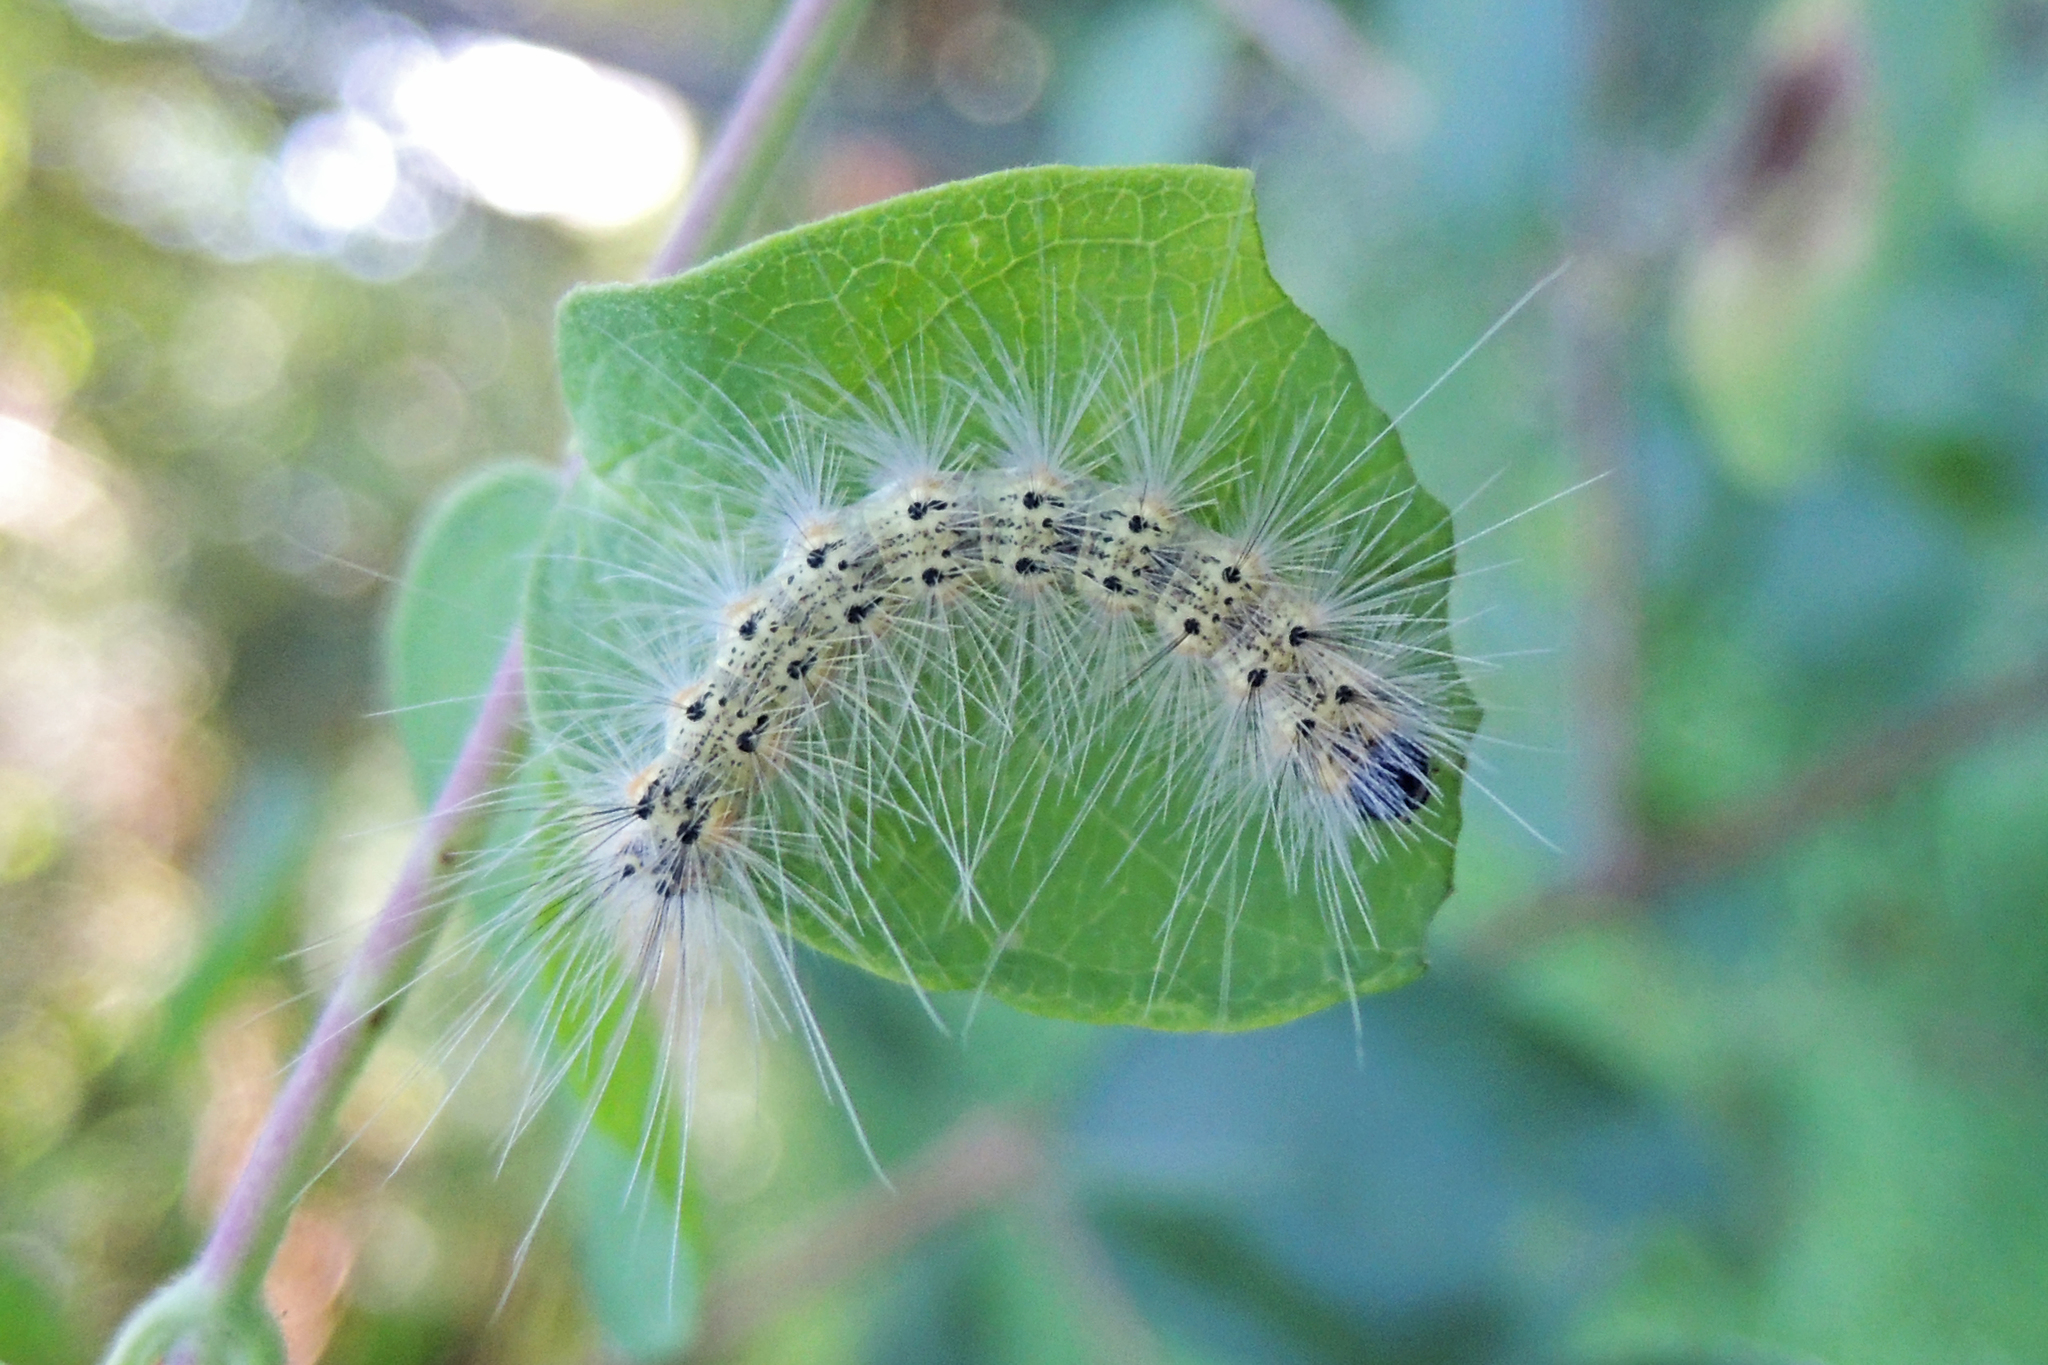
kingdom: Animalia
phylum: Arthropoda
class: Insecta
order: Lepidoptera
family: Erebidae
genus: Hyphantria
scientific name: Hyphantria cunea
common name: American white moth
